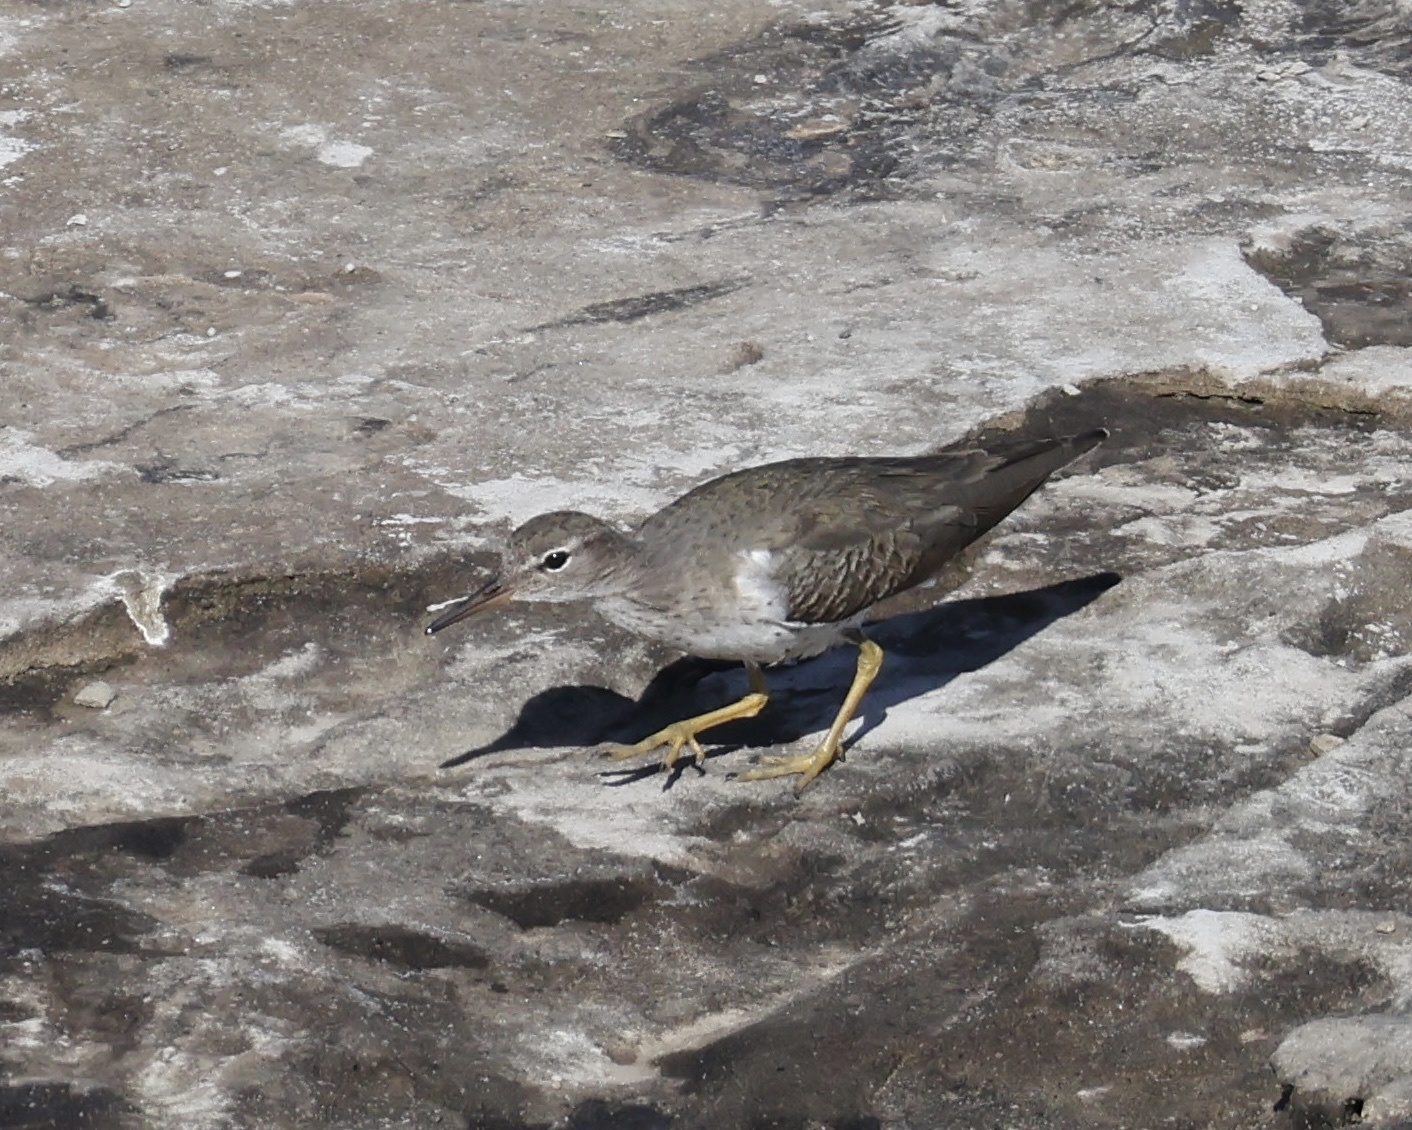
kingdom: Animalia
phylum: Chordata
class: Aves
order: Charadriiformes
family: Scolopacidae
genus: Actitis
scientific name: Actitis macularius
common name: Spotted sandpiper
